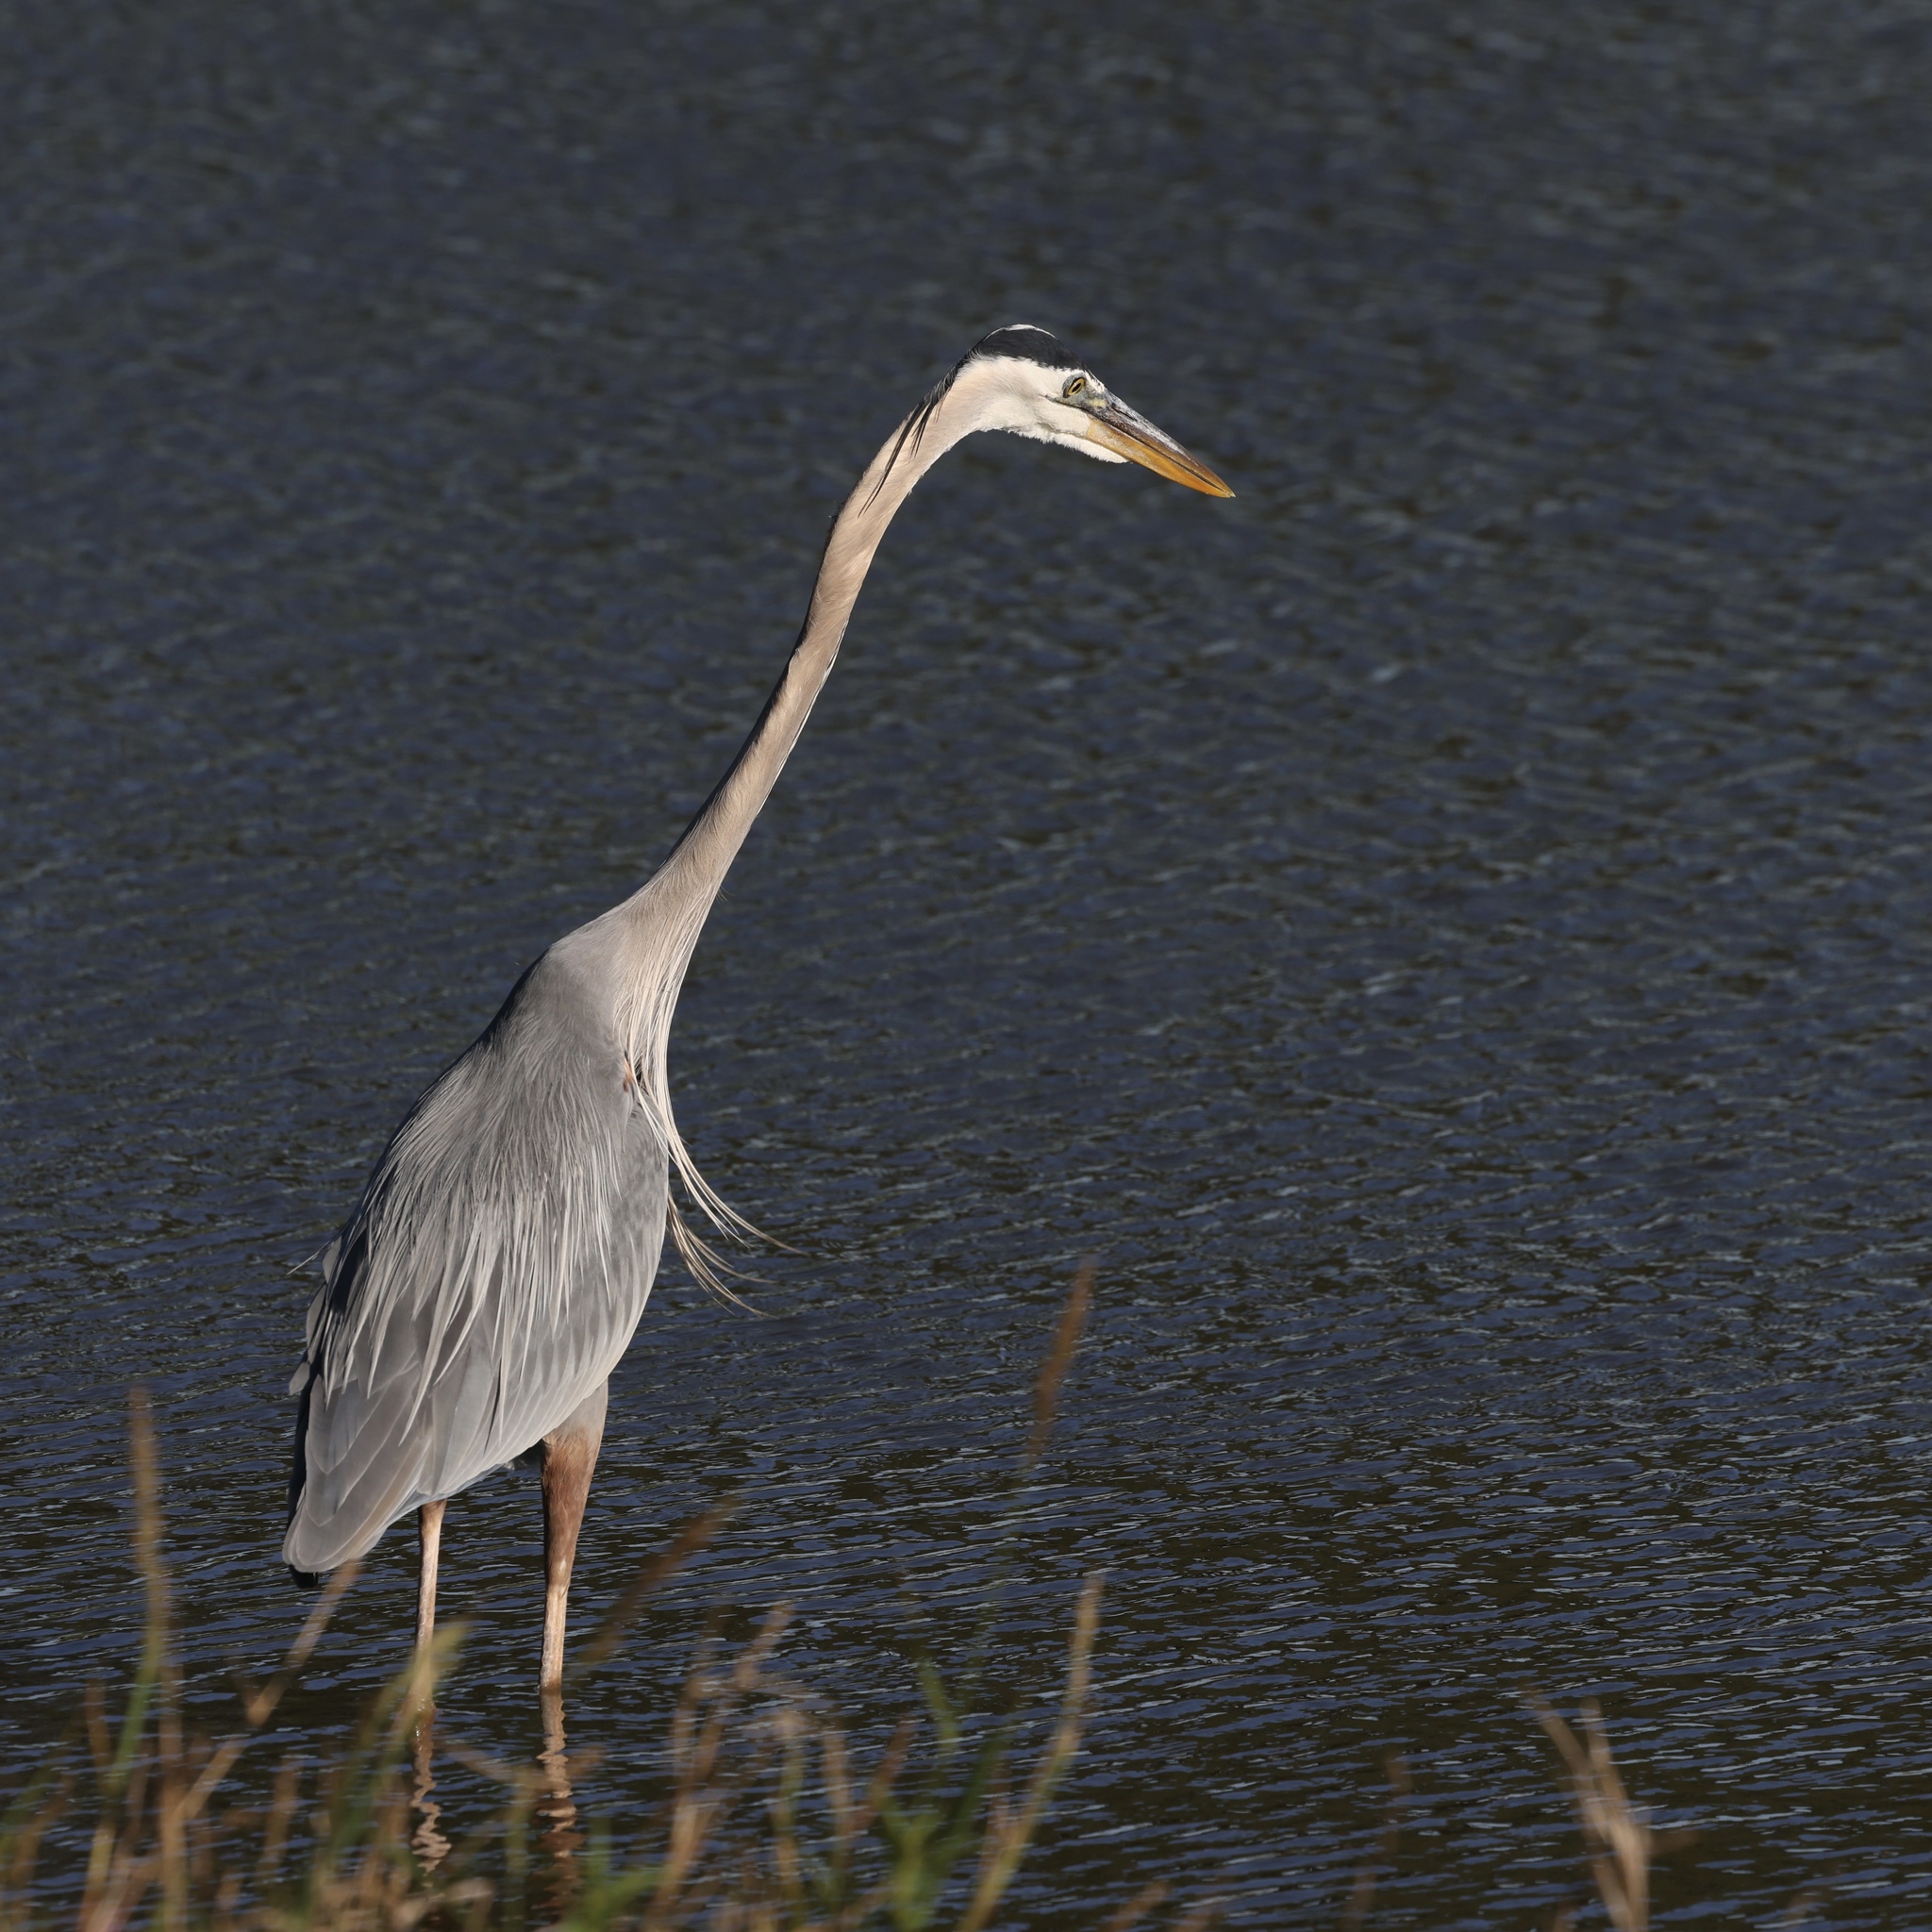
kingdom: Animalia
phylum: Chordata
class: Aves
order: Pelecaniformes
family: Ardeidae
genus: Ardea
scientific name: Ardea herodias
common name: Great blue heron
